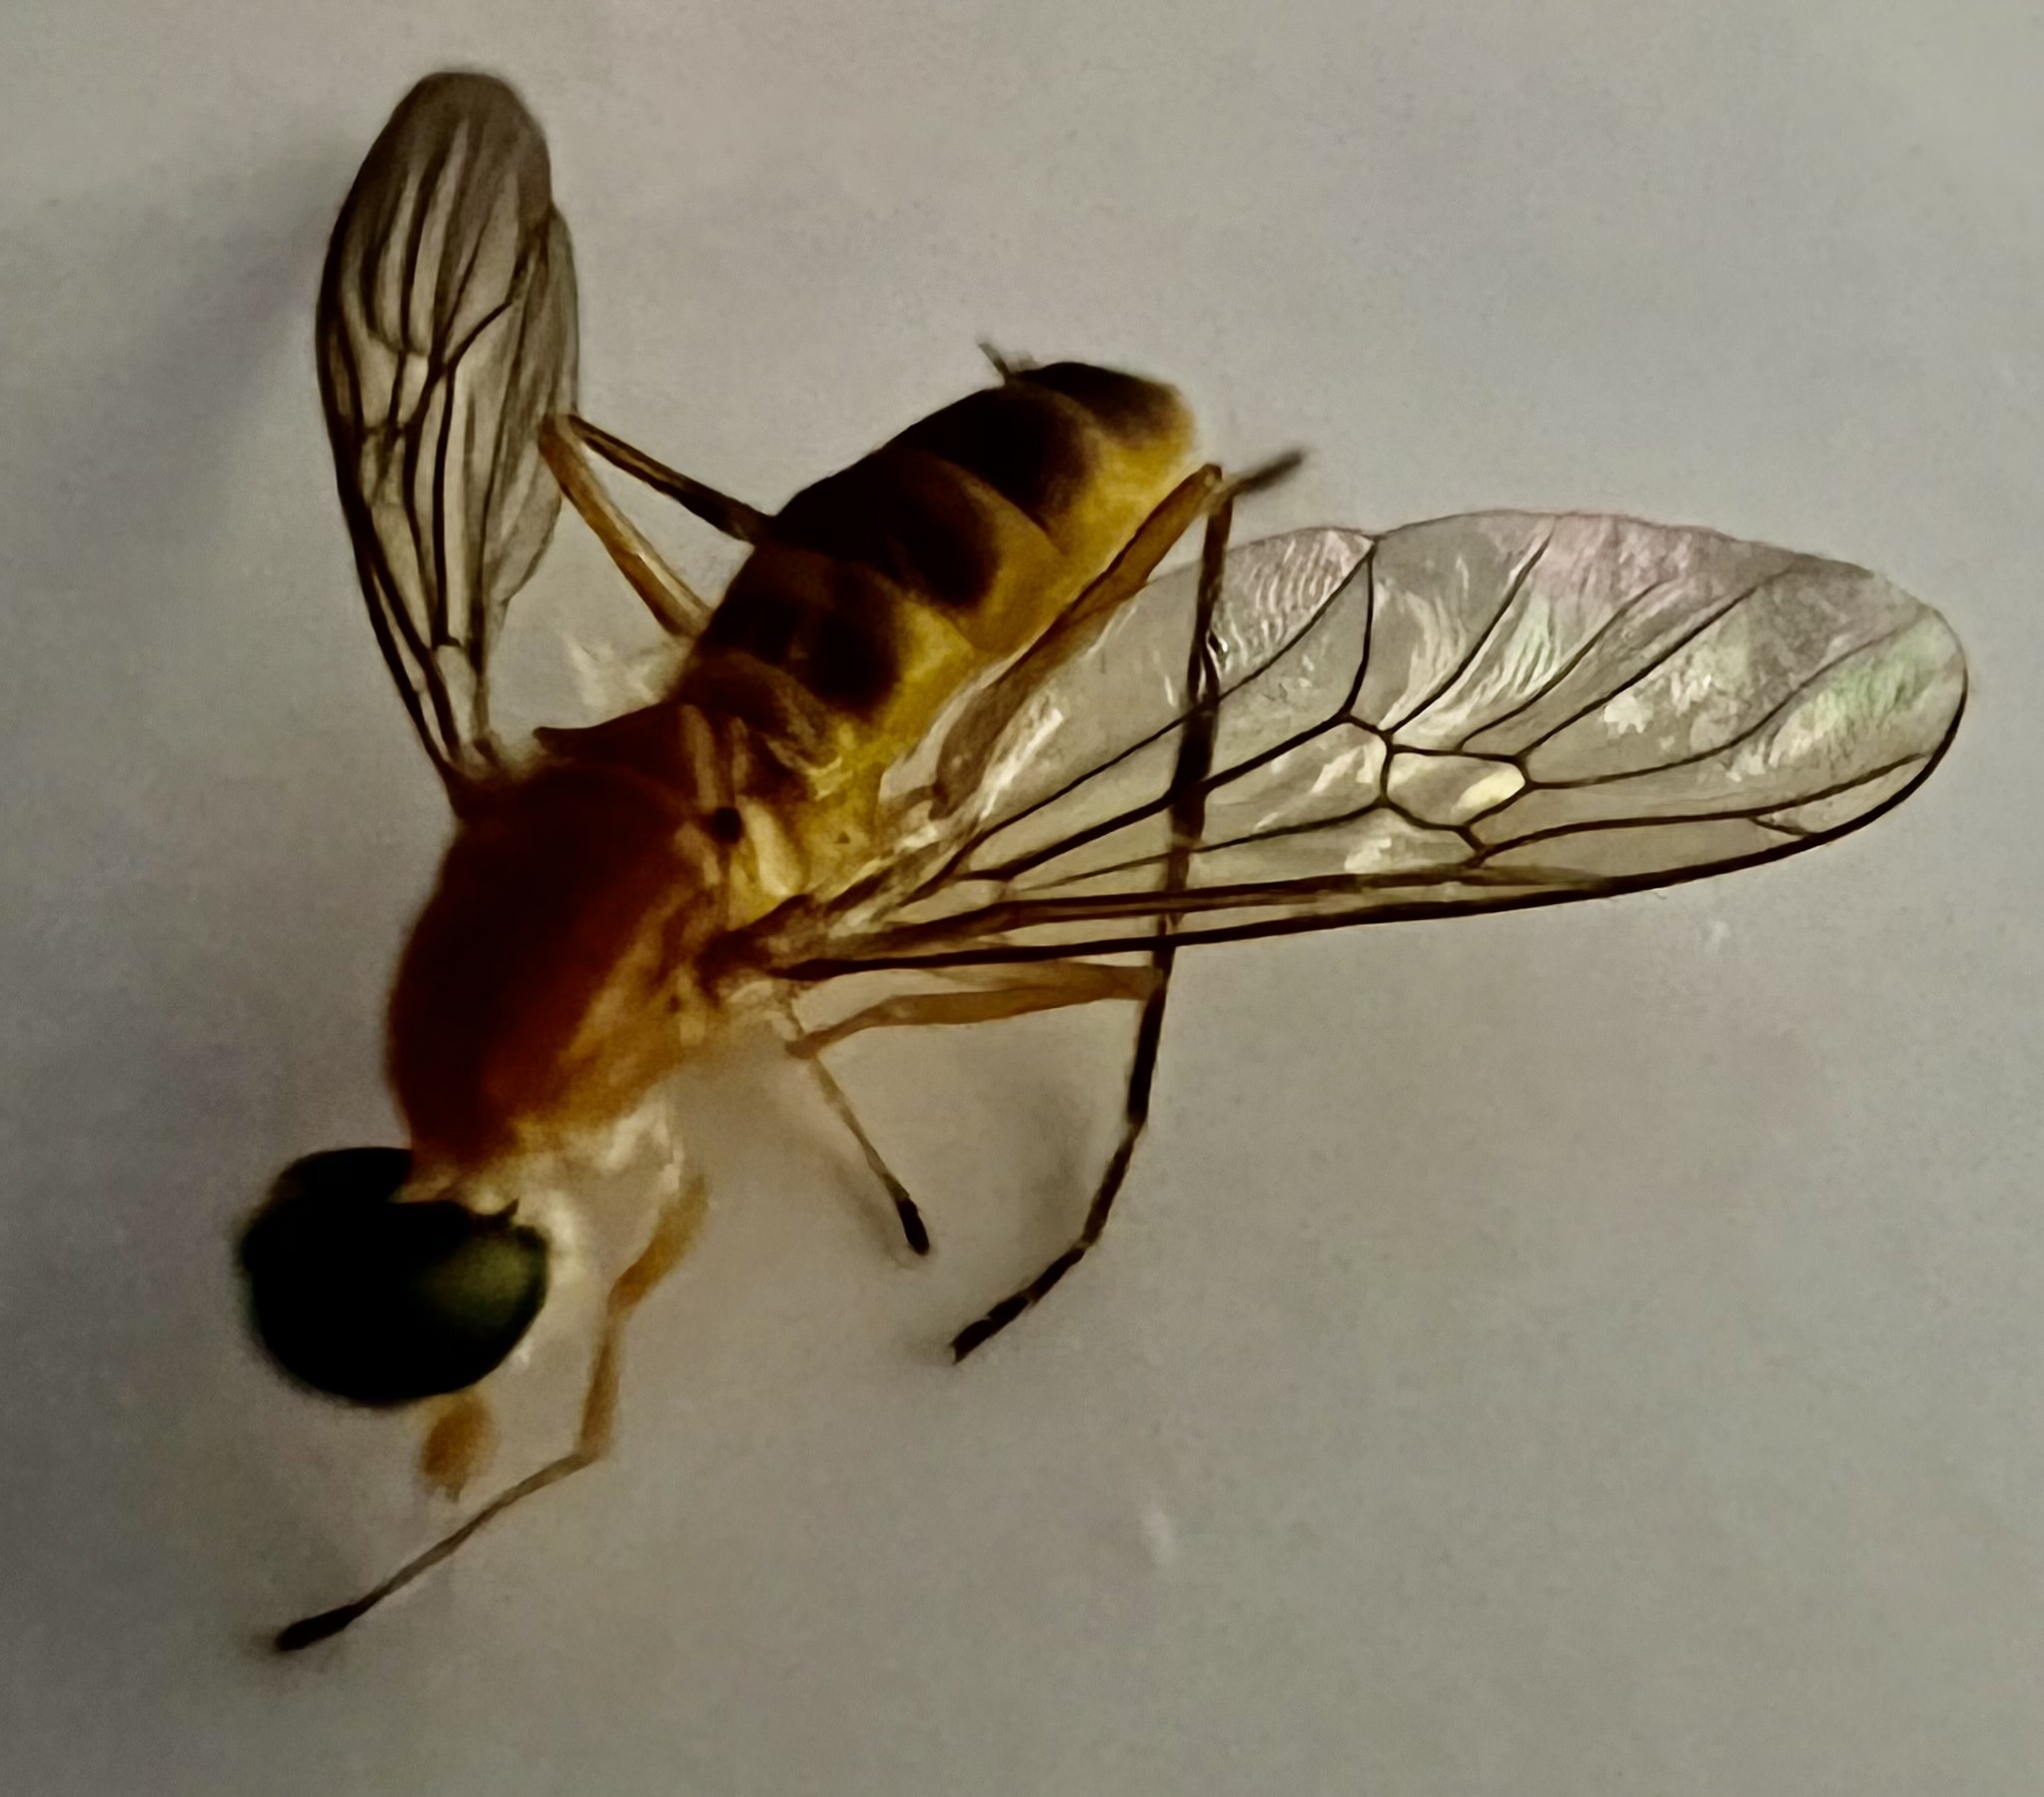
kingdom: Animalia
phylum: Arthropoda
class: Insecta
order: Diptera
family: Stratiomyidae
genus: Ptecticus
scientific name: Ptecticus trivittatus
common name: Compost fly
